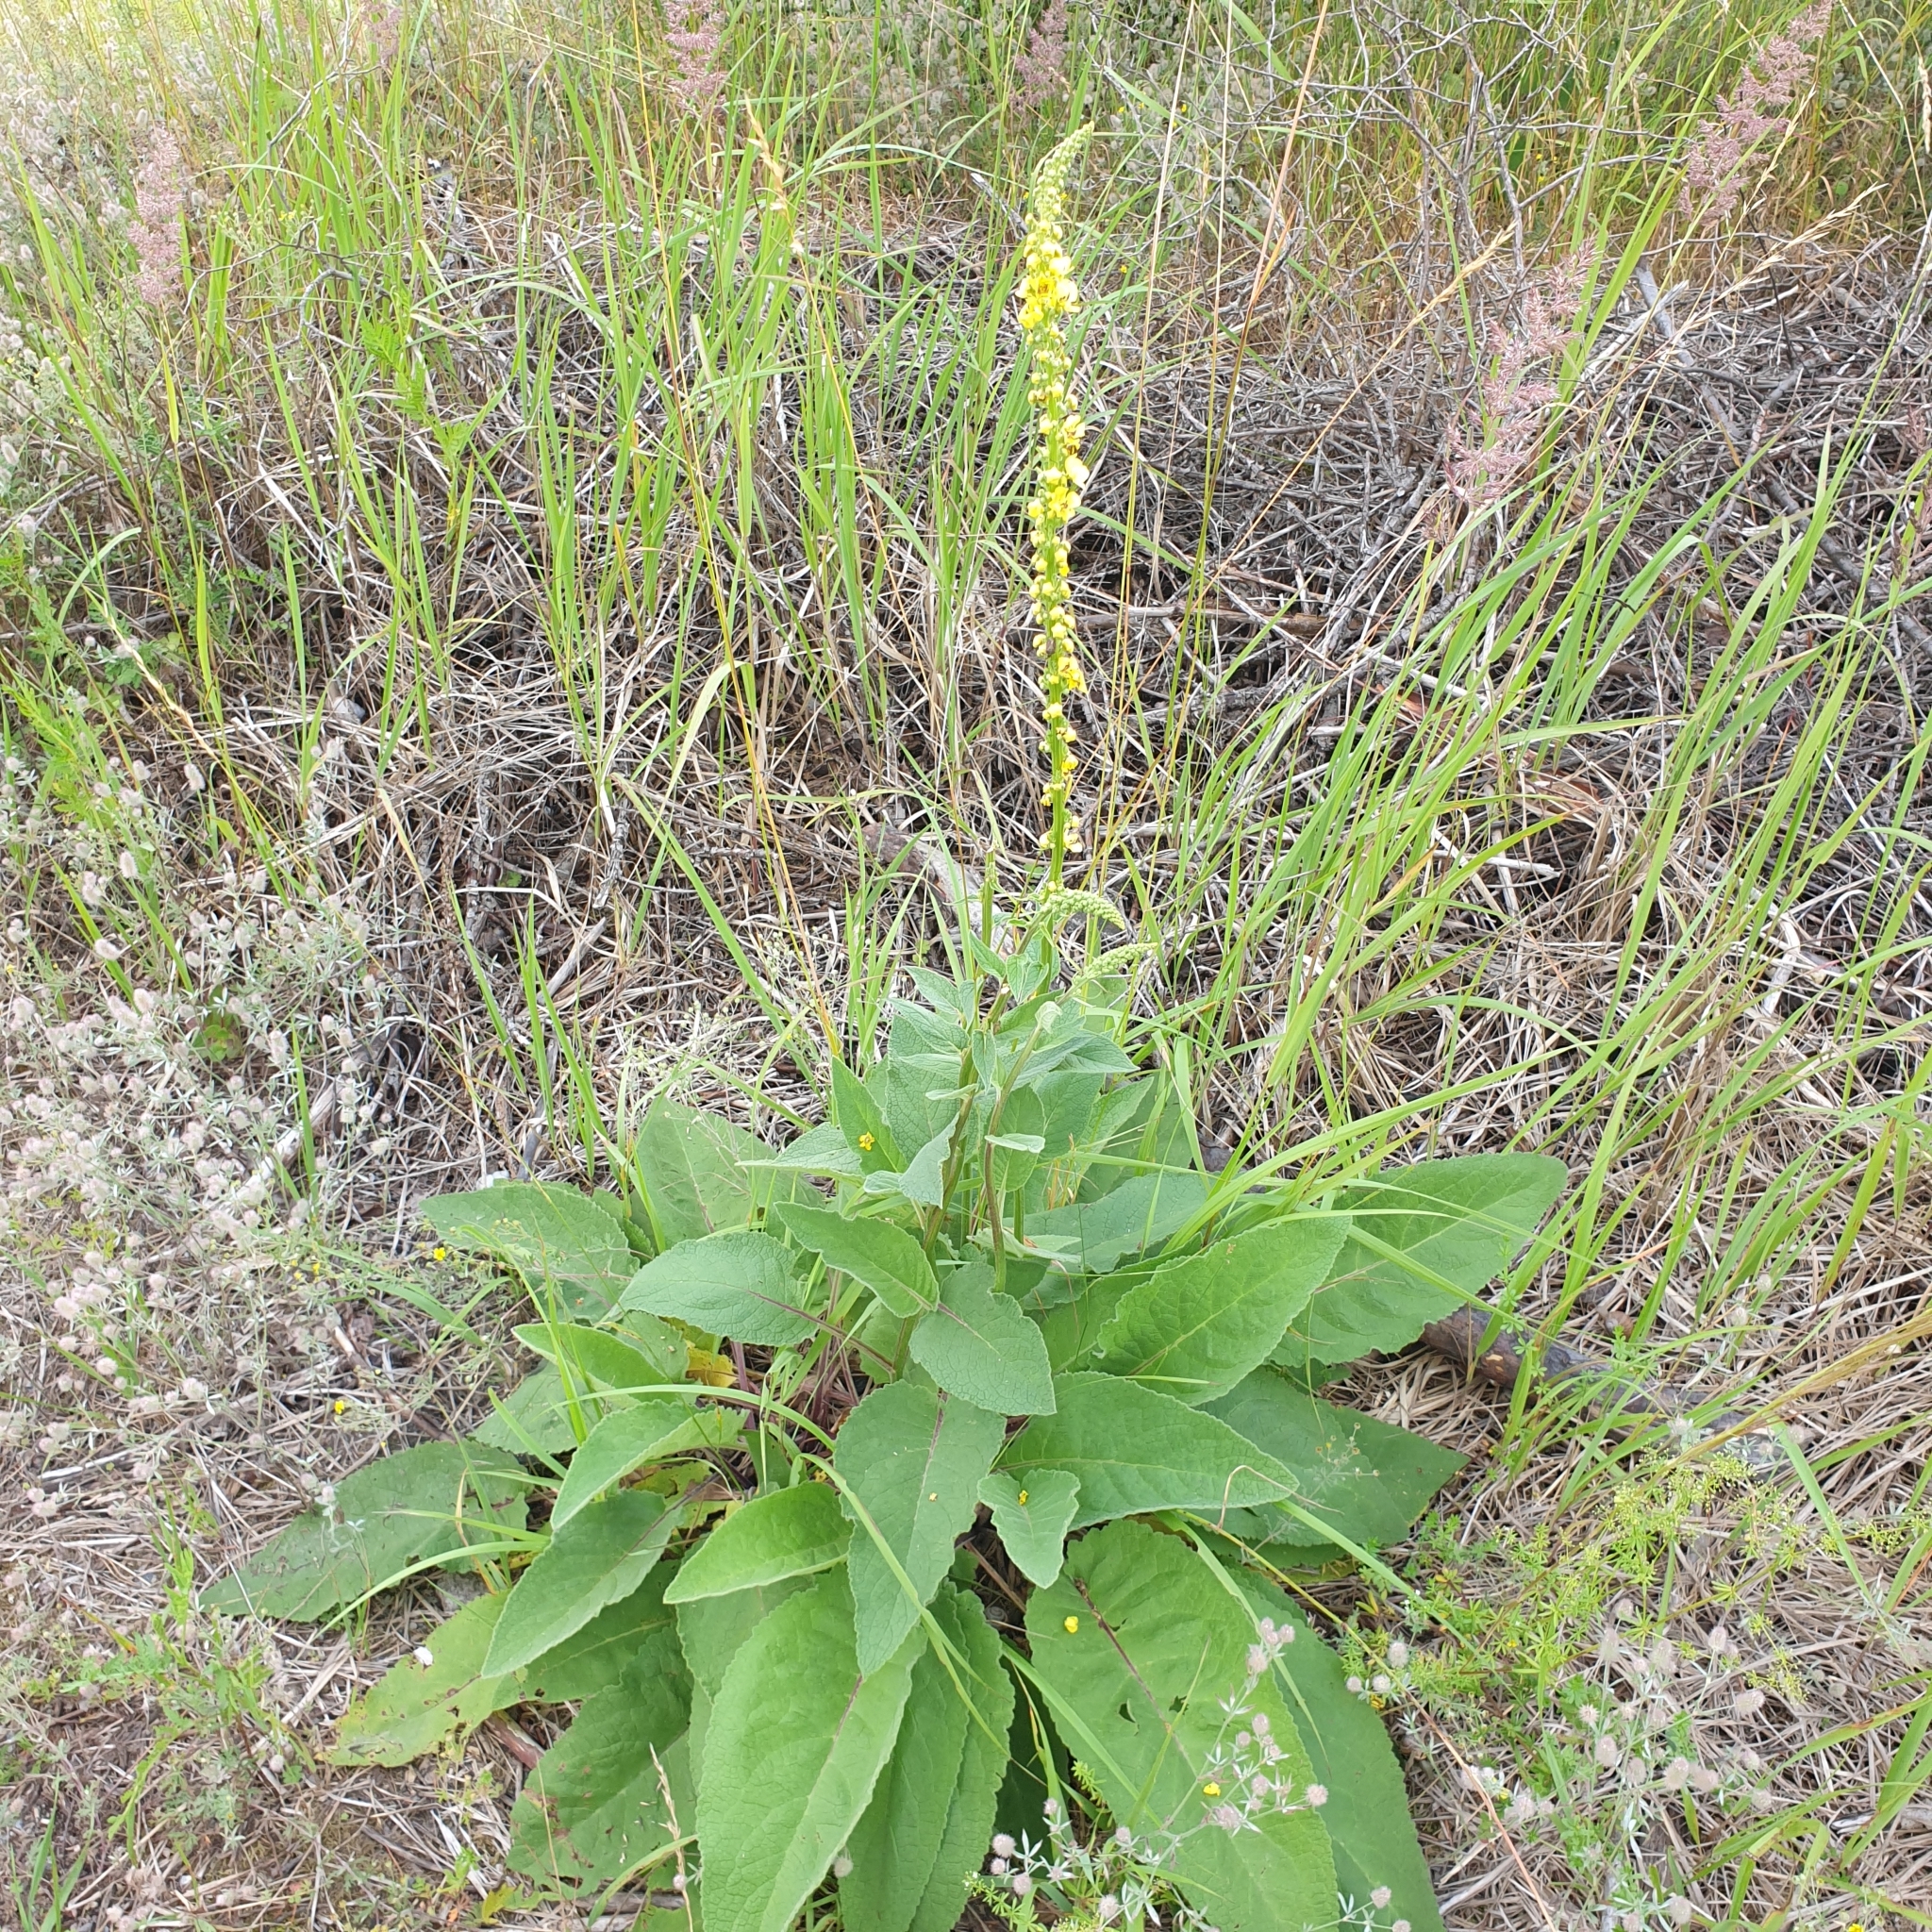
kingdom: Plantae
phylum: Tracheophyta
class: Magnoliopsida
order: Lamiales
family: Scrophulariaceae
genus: Verbascum
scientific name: Verbascum nigrum
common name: Dark mullein
